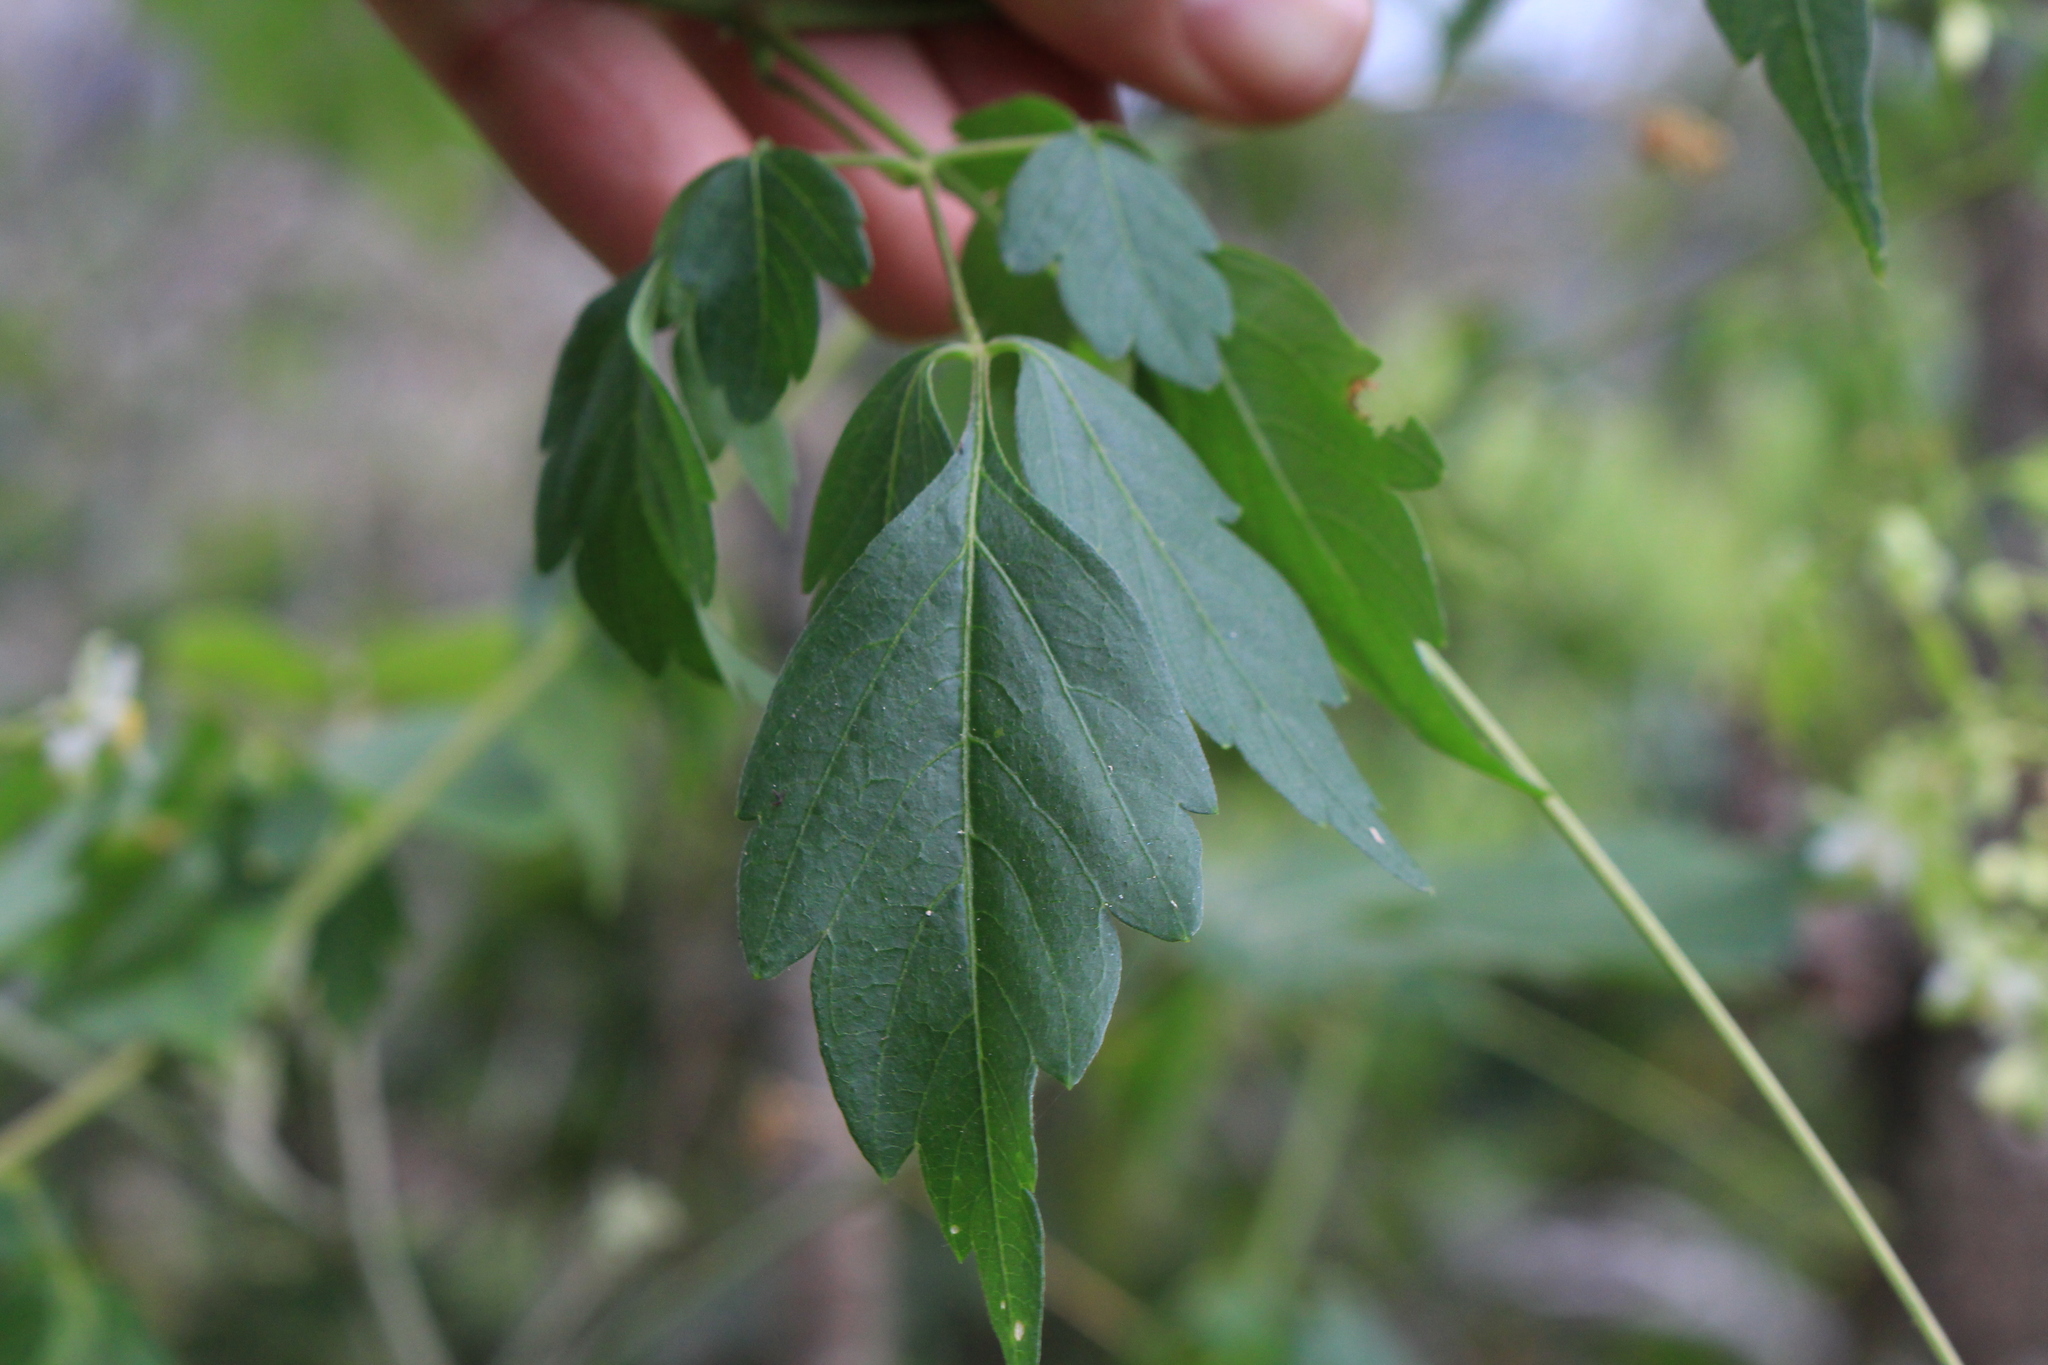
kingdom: Plantae
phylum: Tracheophyta
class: Magnoliopsida
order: Sapindales
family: Sapindaceae
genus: Cardiospermum
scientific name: Cardiospermum grandiflorum
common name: Balloon vine
